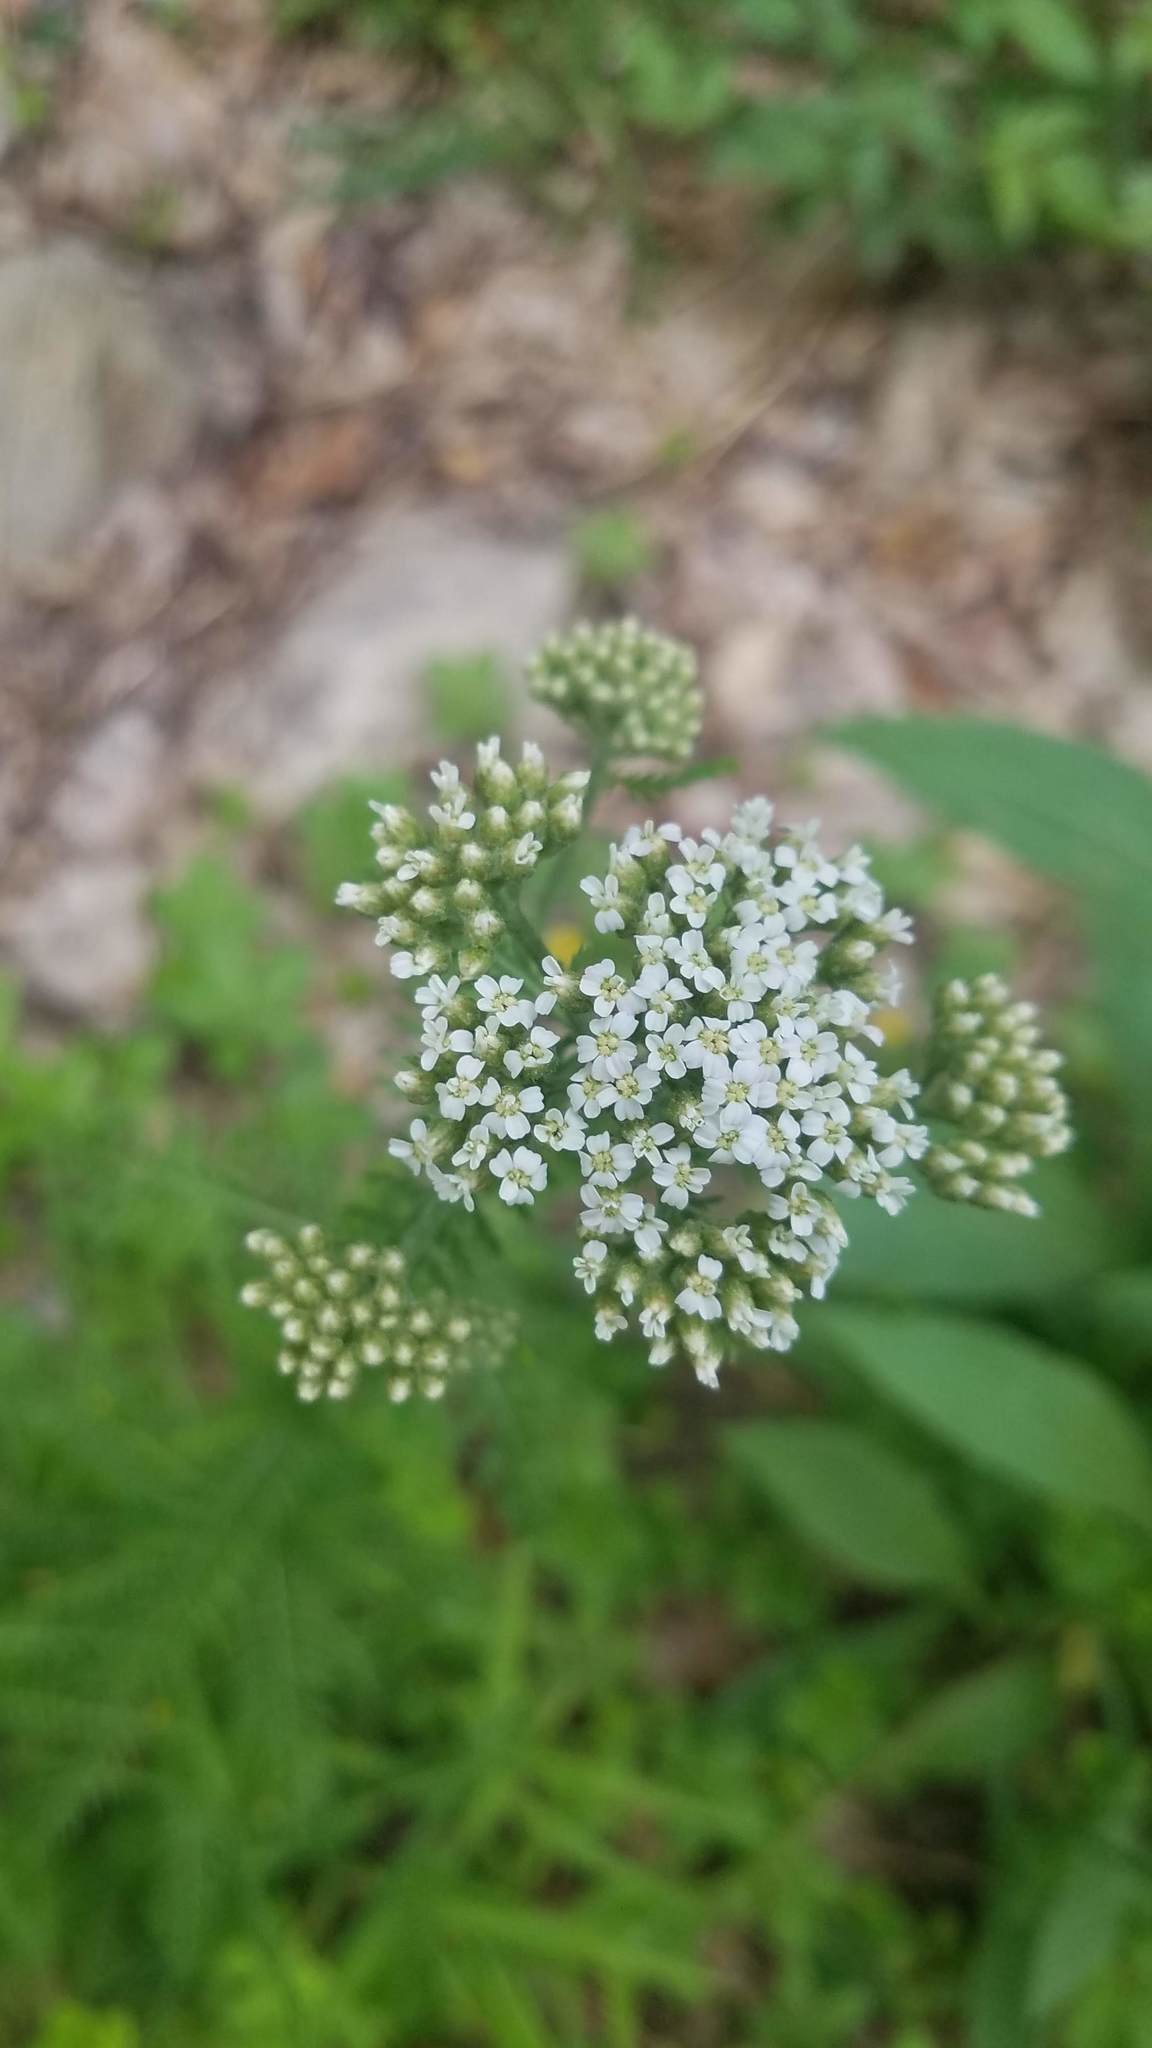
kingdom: Plantae
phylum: Tracheophyta
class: Magnoliopsida
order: Asterales
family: Asteraceae
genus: Achillea
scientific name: Achillea millefolium
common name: Yarrow
